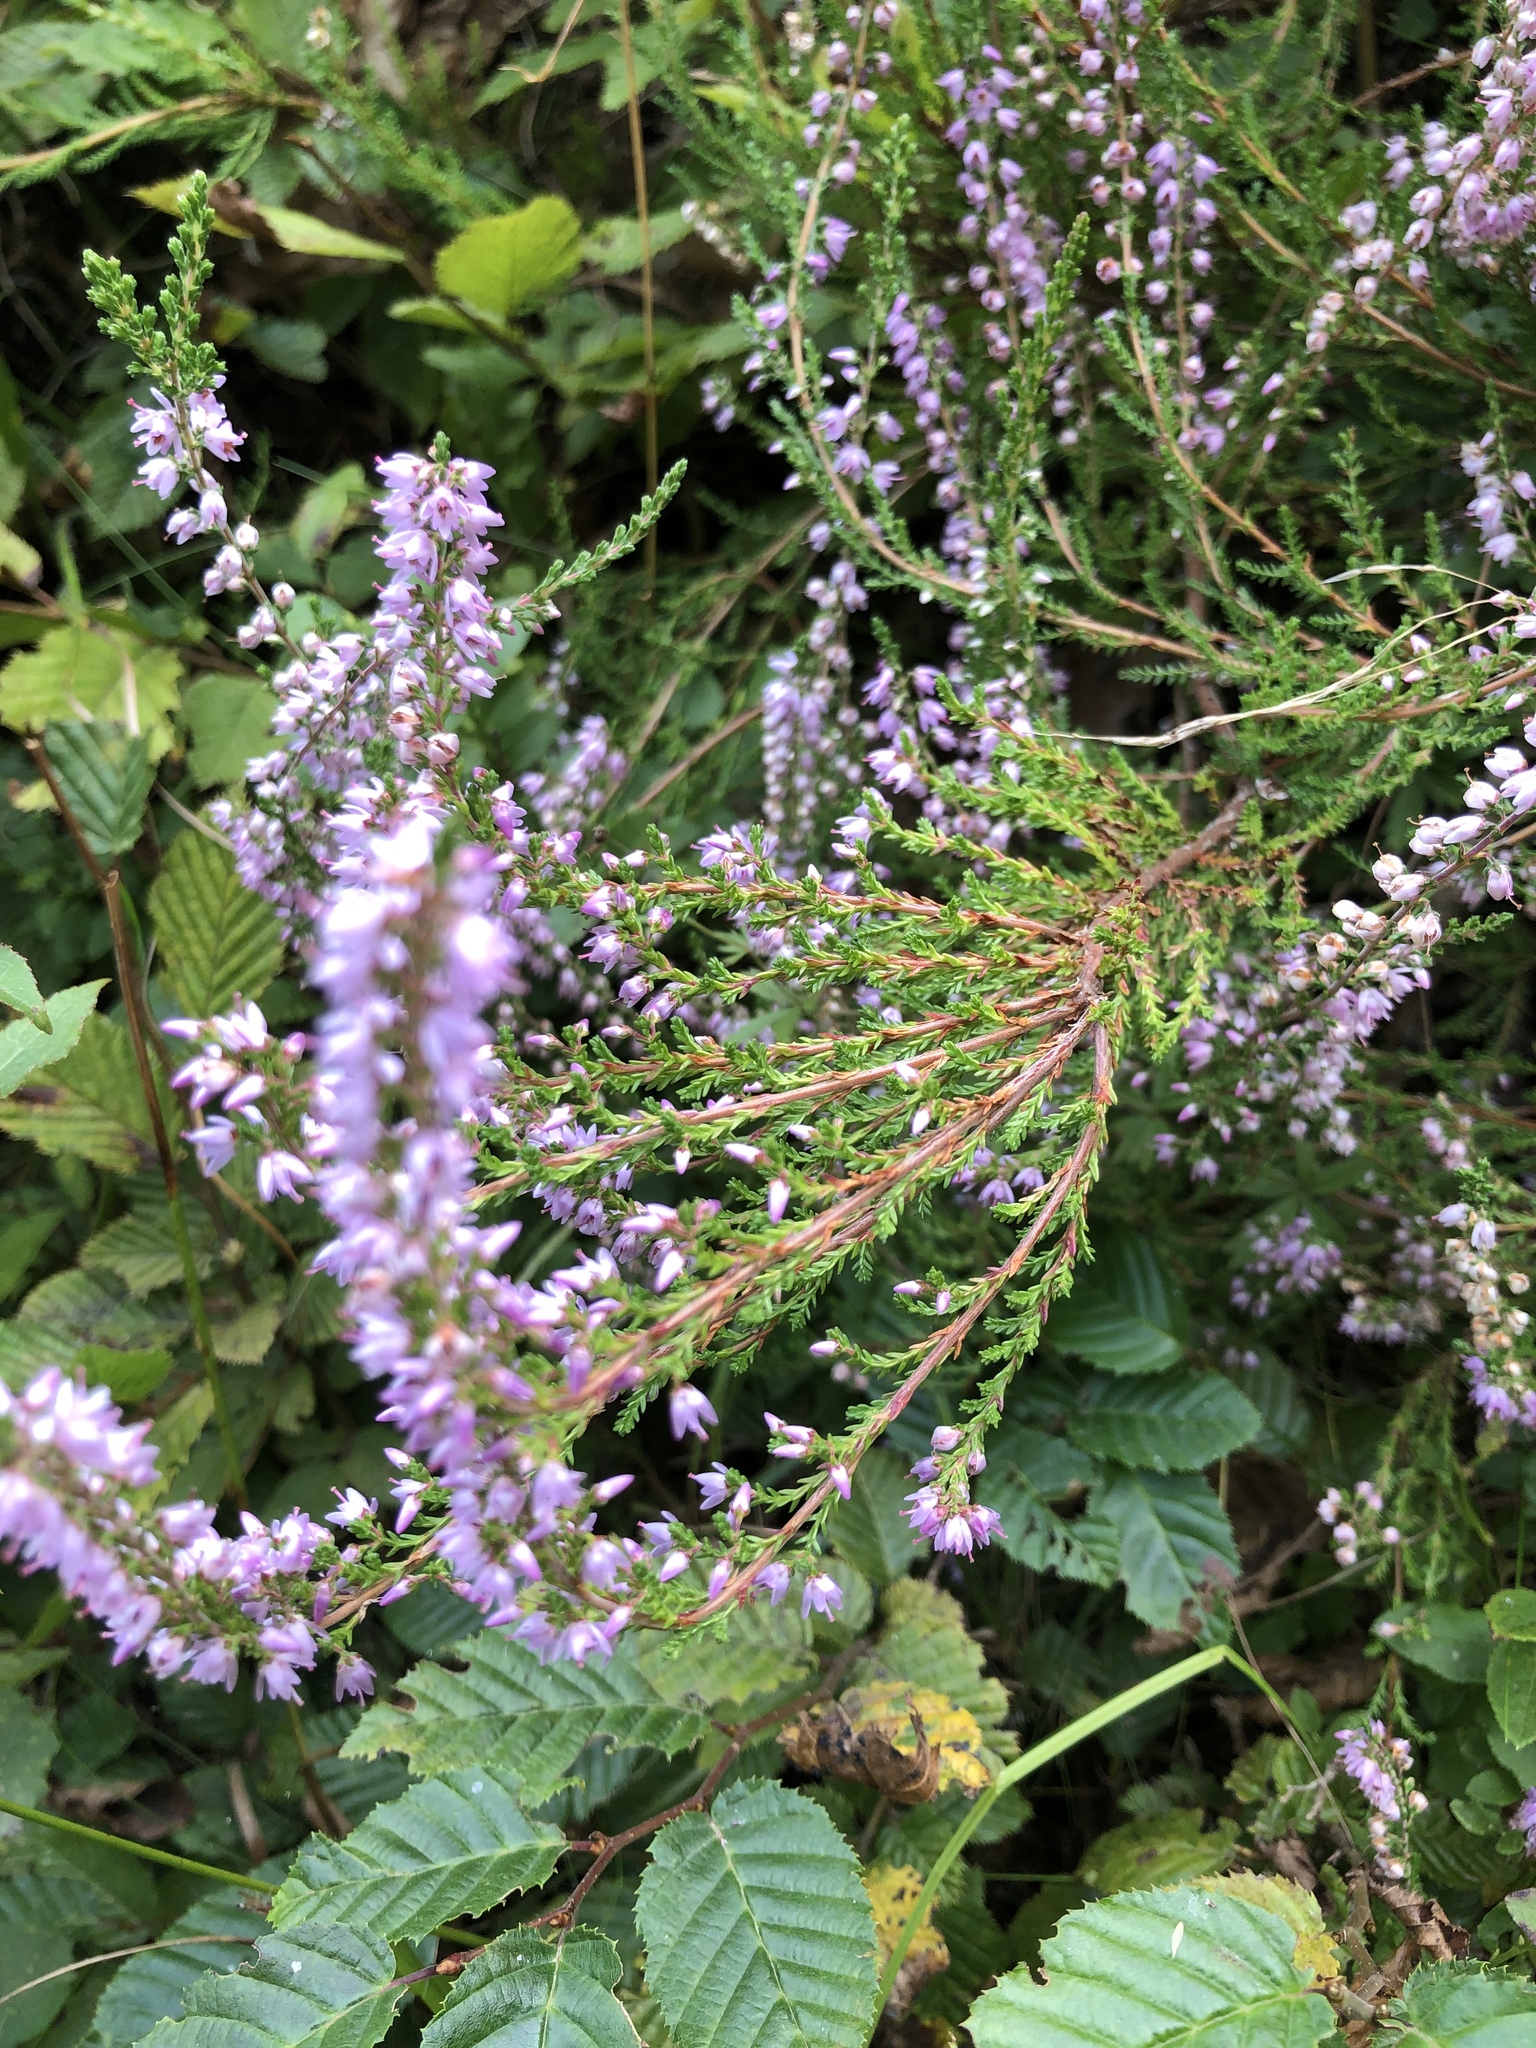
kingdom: Plantae
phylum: Tracheophyta
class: Magnoliopsida
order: Ericales
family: Ericaceae
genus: Calluna
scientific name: Calluna vulgaris
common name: Heather
